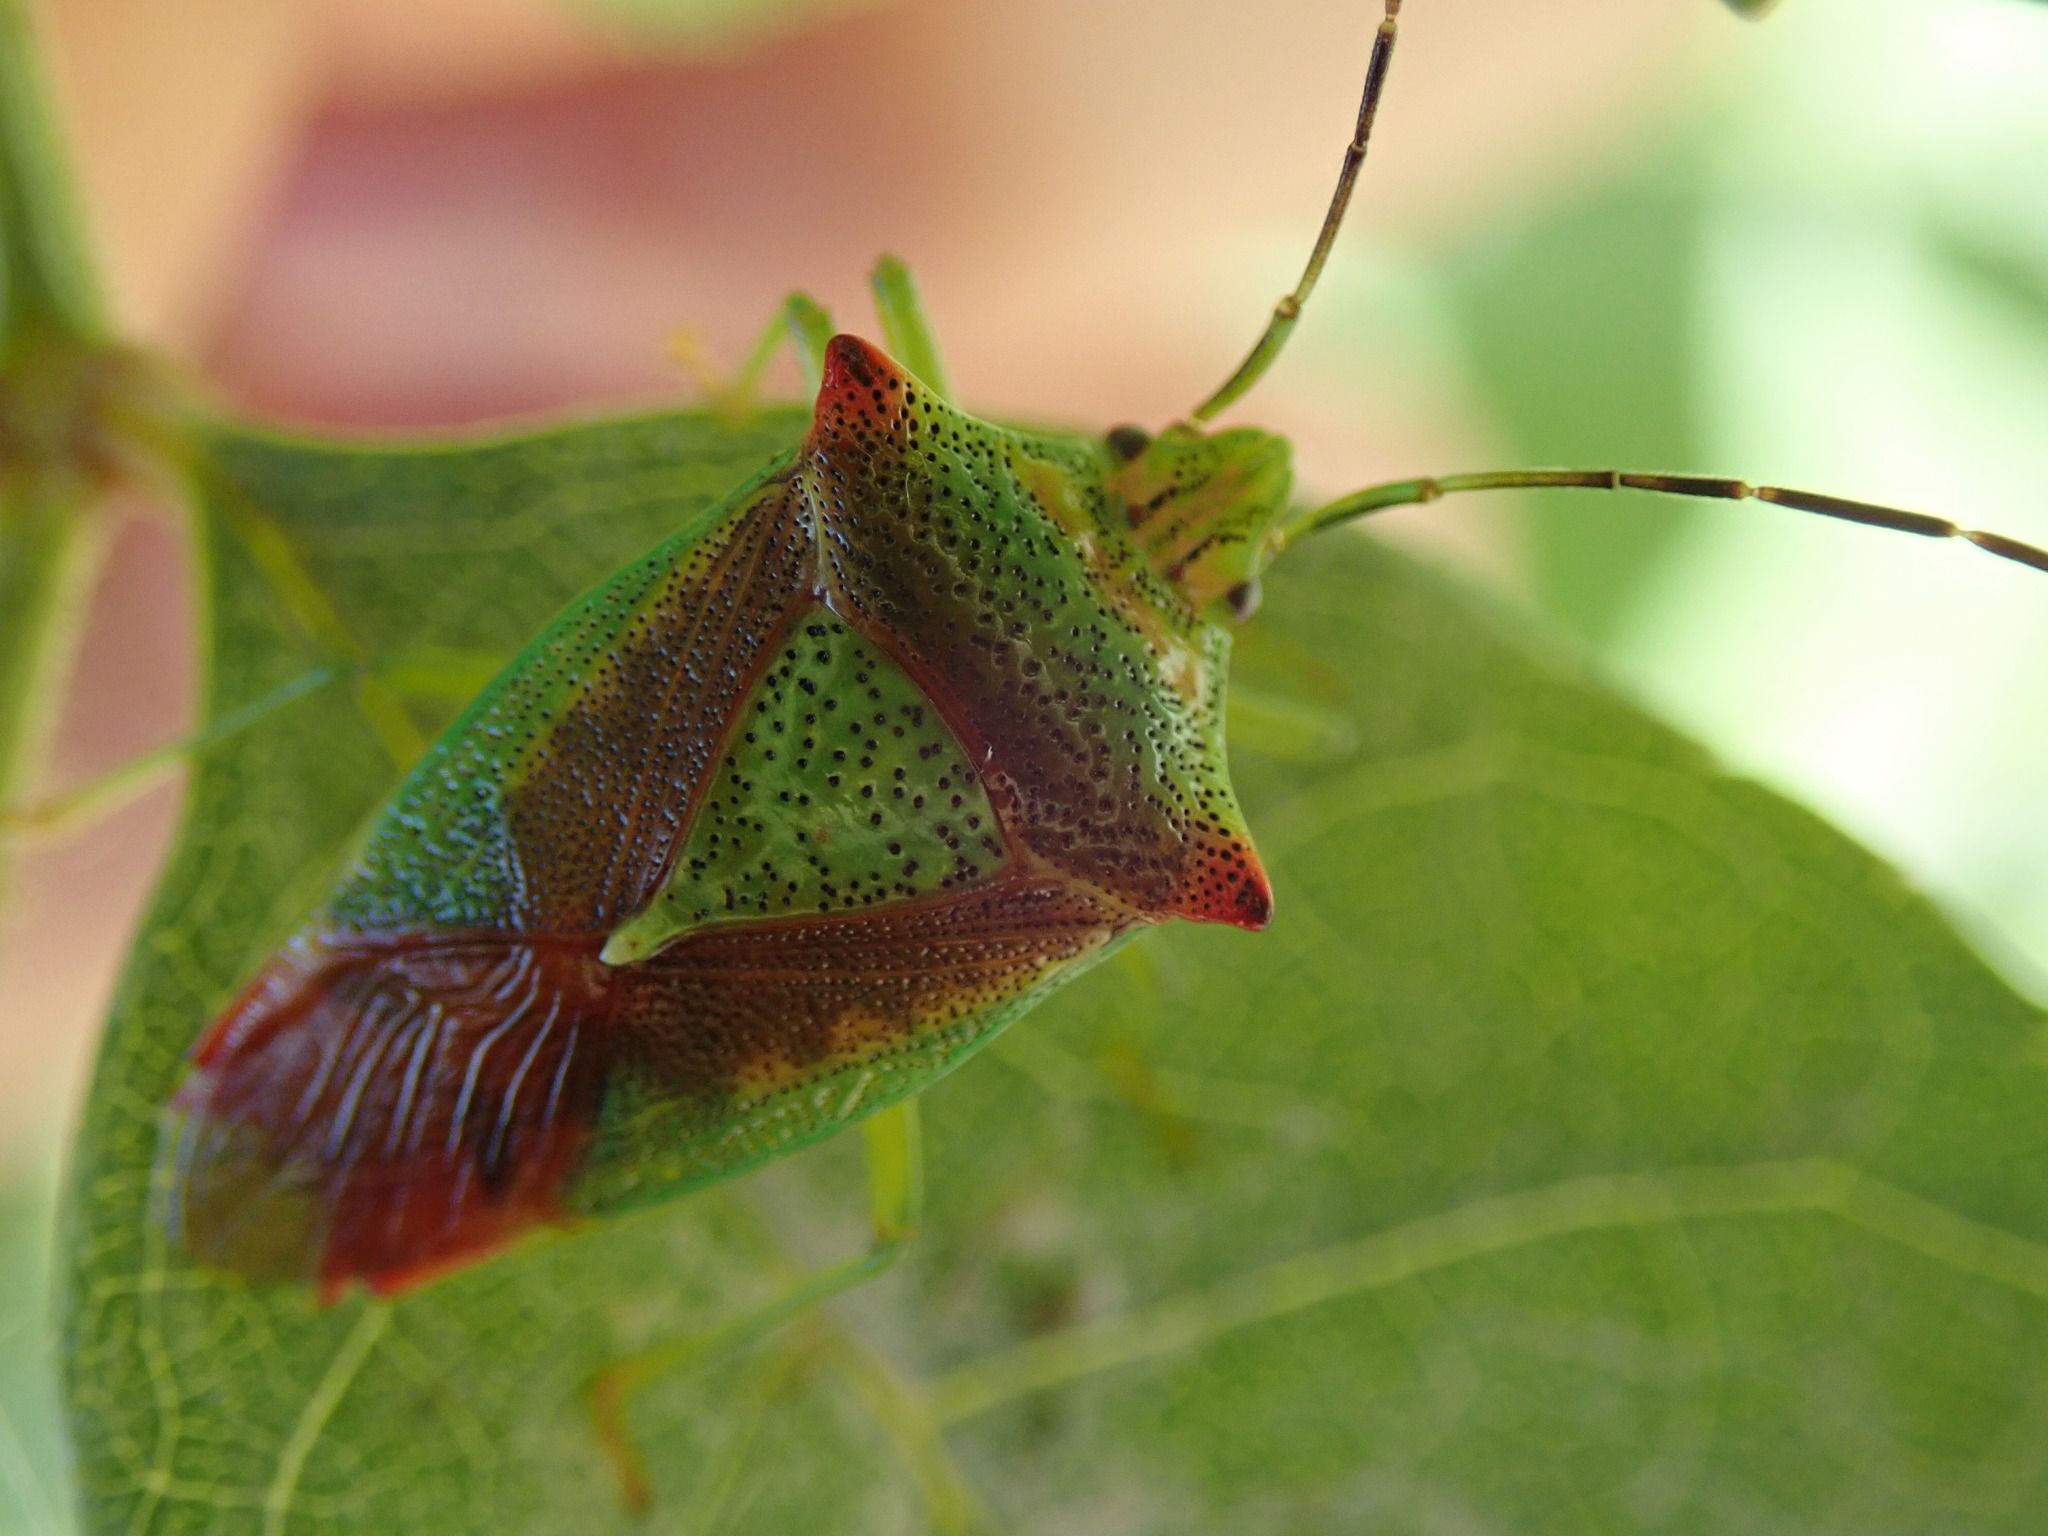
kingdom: Animalia
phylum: Arthropoda
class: Insecta
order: Hemiptera
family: Acanthosomatidae
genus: Acanthosoma
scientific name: Acanthosoma haemorrhoidale
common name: Hawthorn shieldbug
